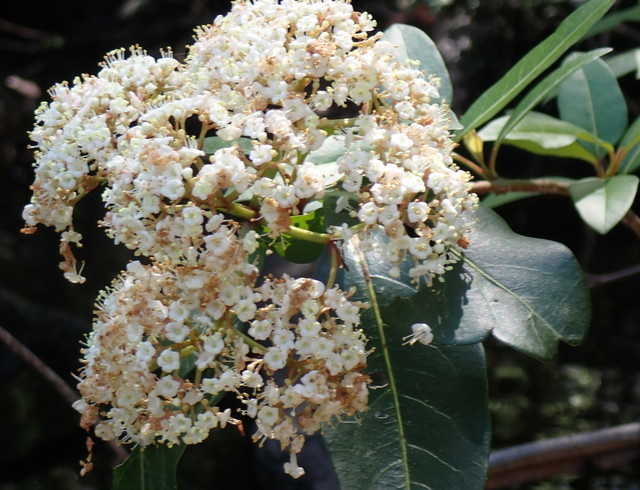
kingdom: Plantae
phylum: Tracheophyta
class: Magnoliopsida
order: Dipsacales
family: Viburnaceae
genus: Viburnum
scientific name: Viburnum nudum
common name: Possum haw
